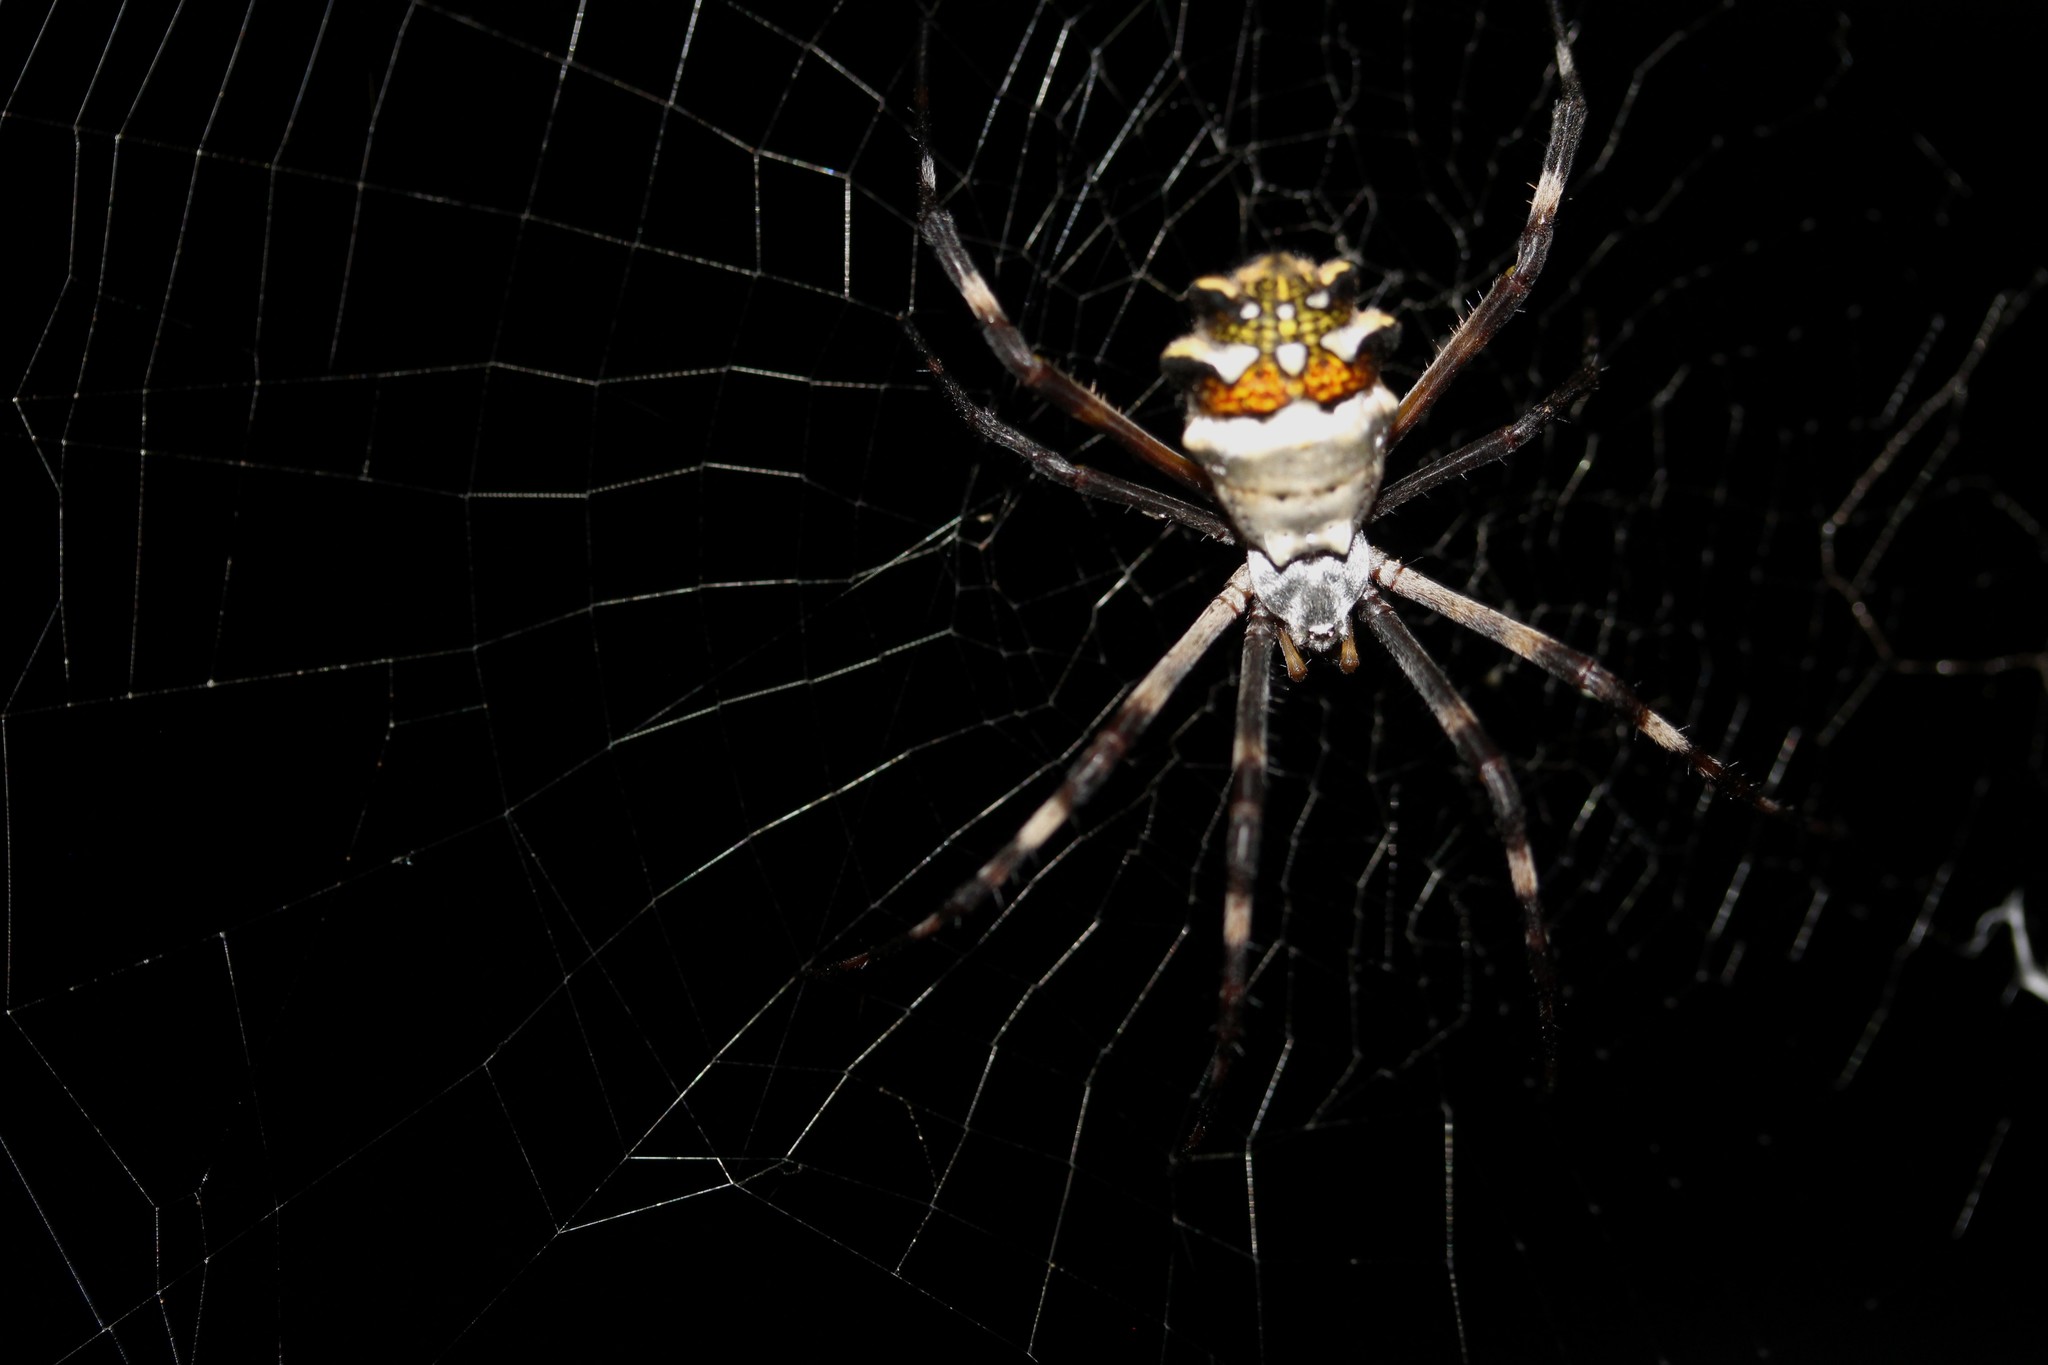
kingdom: Animalia
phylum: Arthropoda
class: Arachnida
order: Araneae
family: Araneidae
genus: Argiope
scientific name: Argiope argentata
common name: Orb weavers
